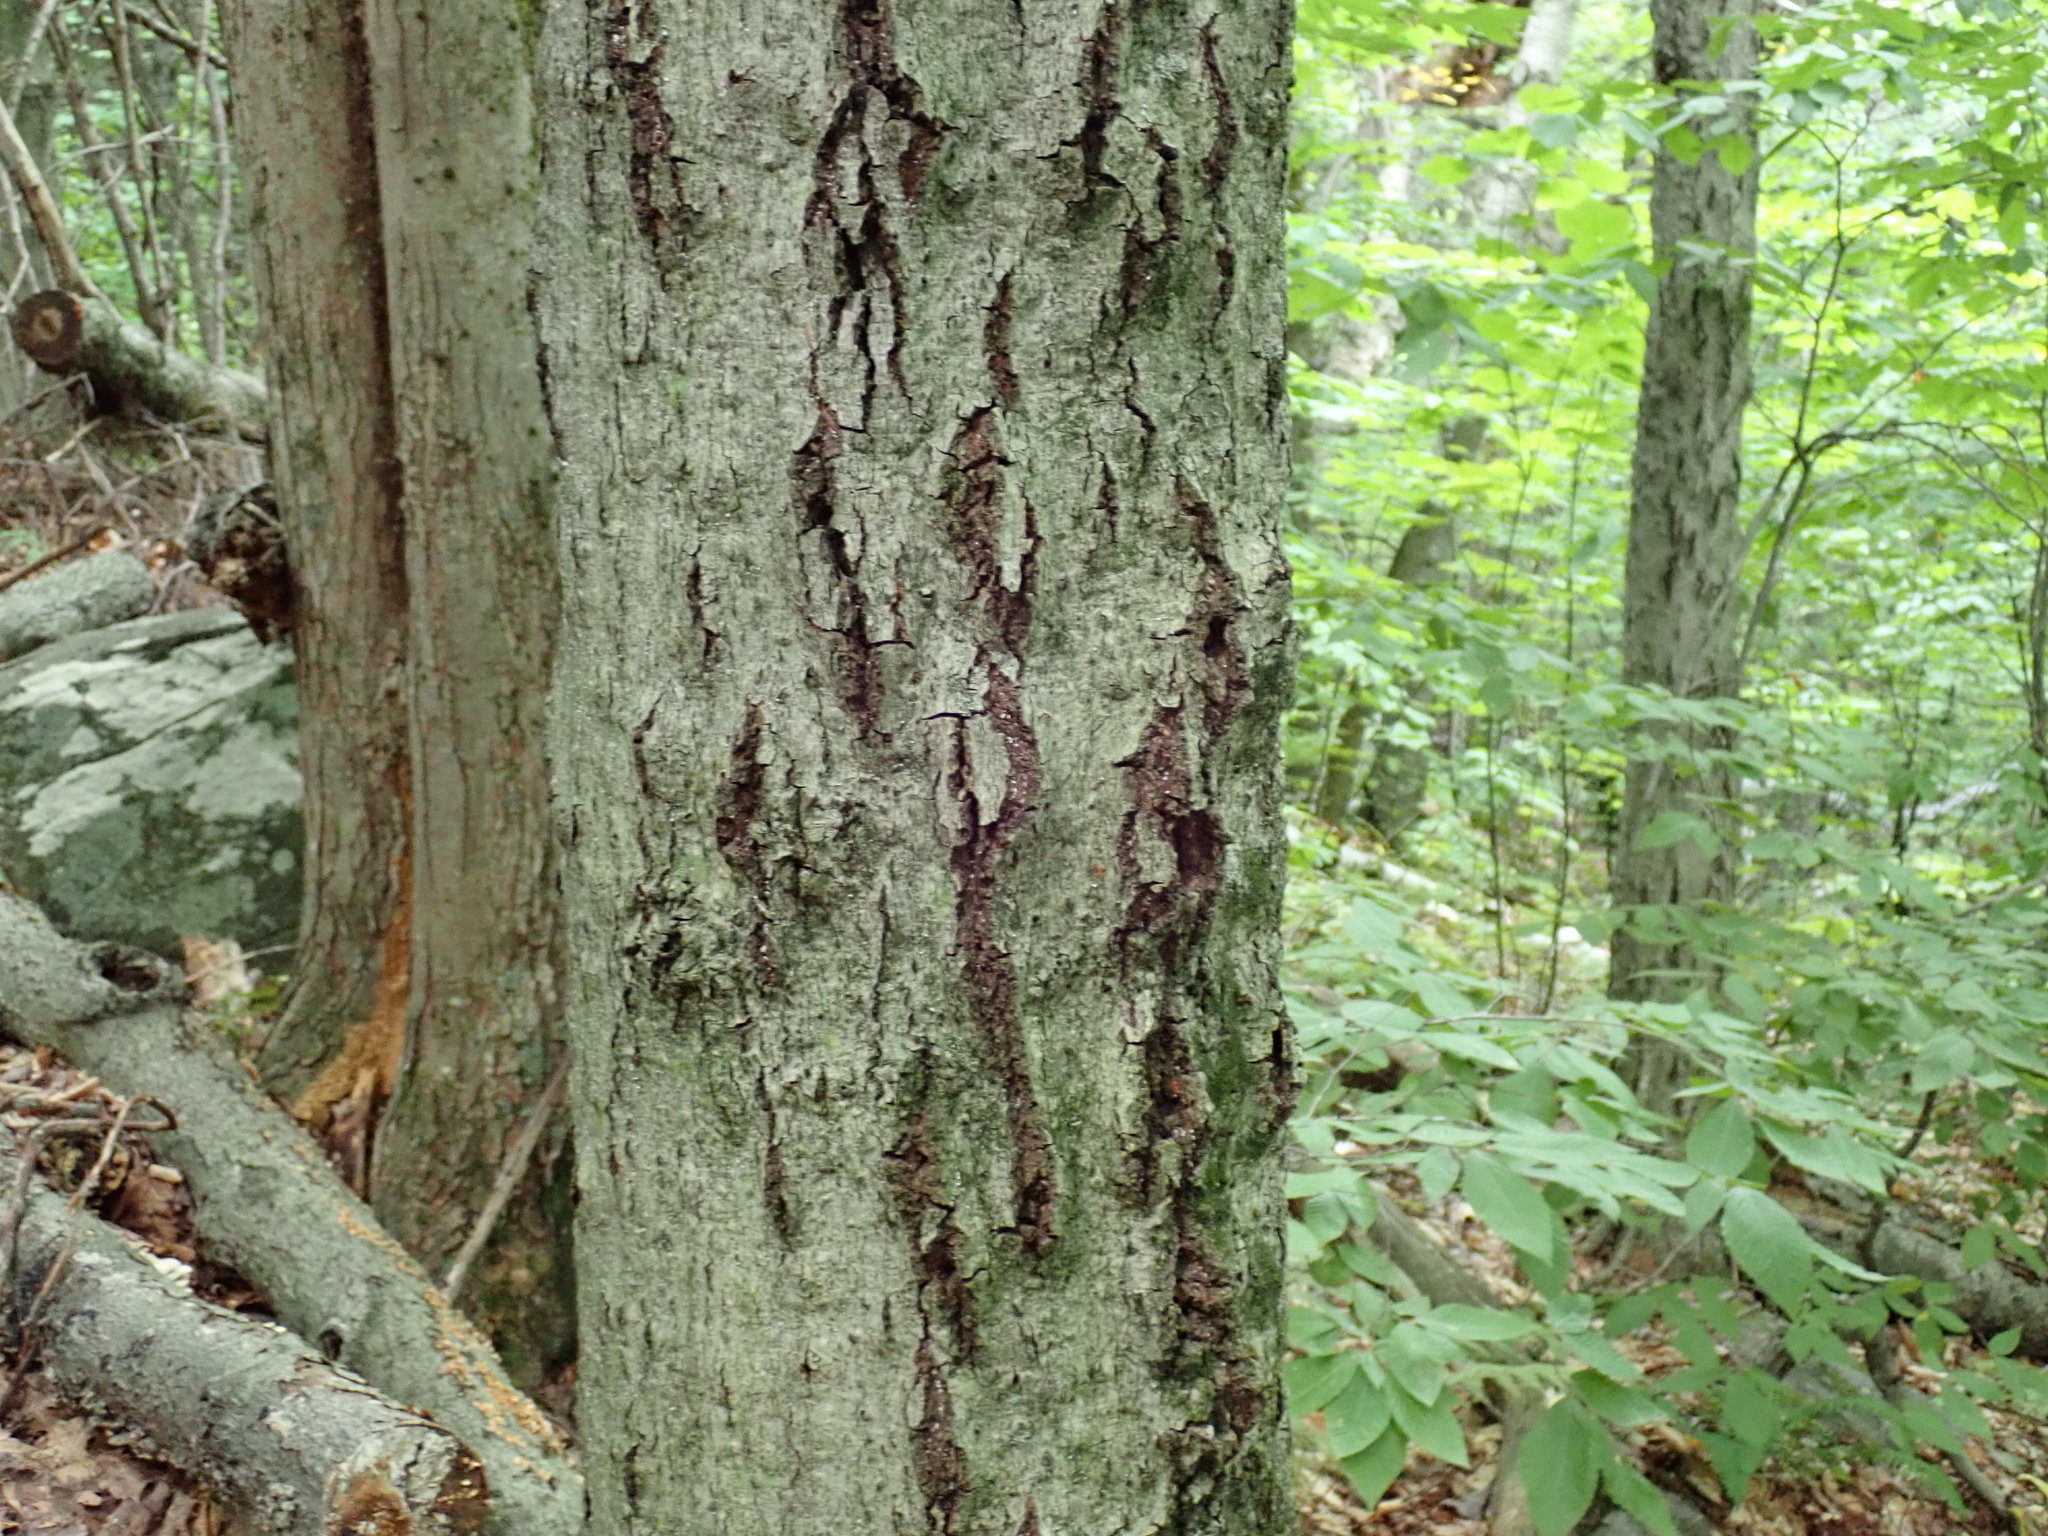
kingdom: Fungi
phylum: Ascomycota
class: Sordariomycetes
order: Hypocreales
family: Nectriaceae
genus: Neonectria
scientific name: Neonectria faginata
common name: Beech bark canker
